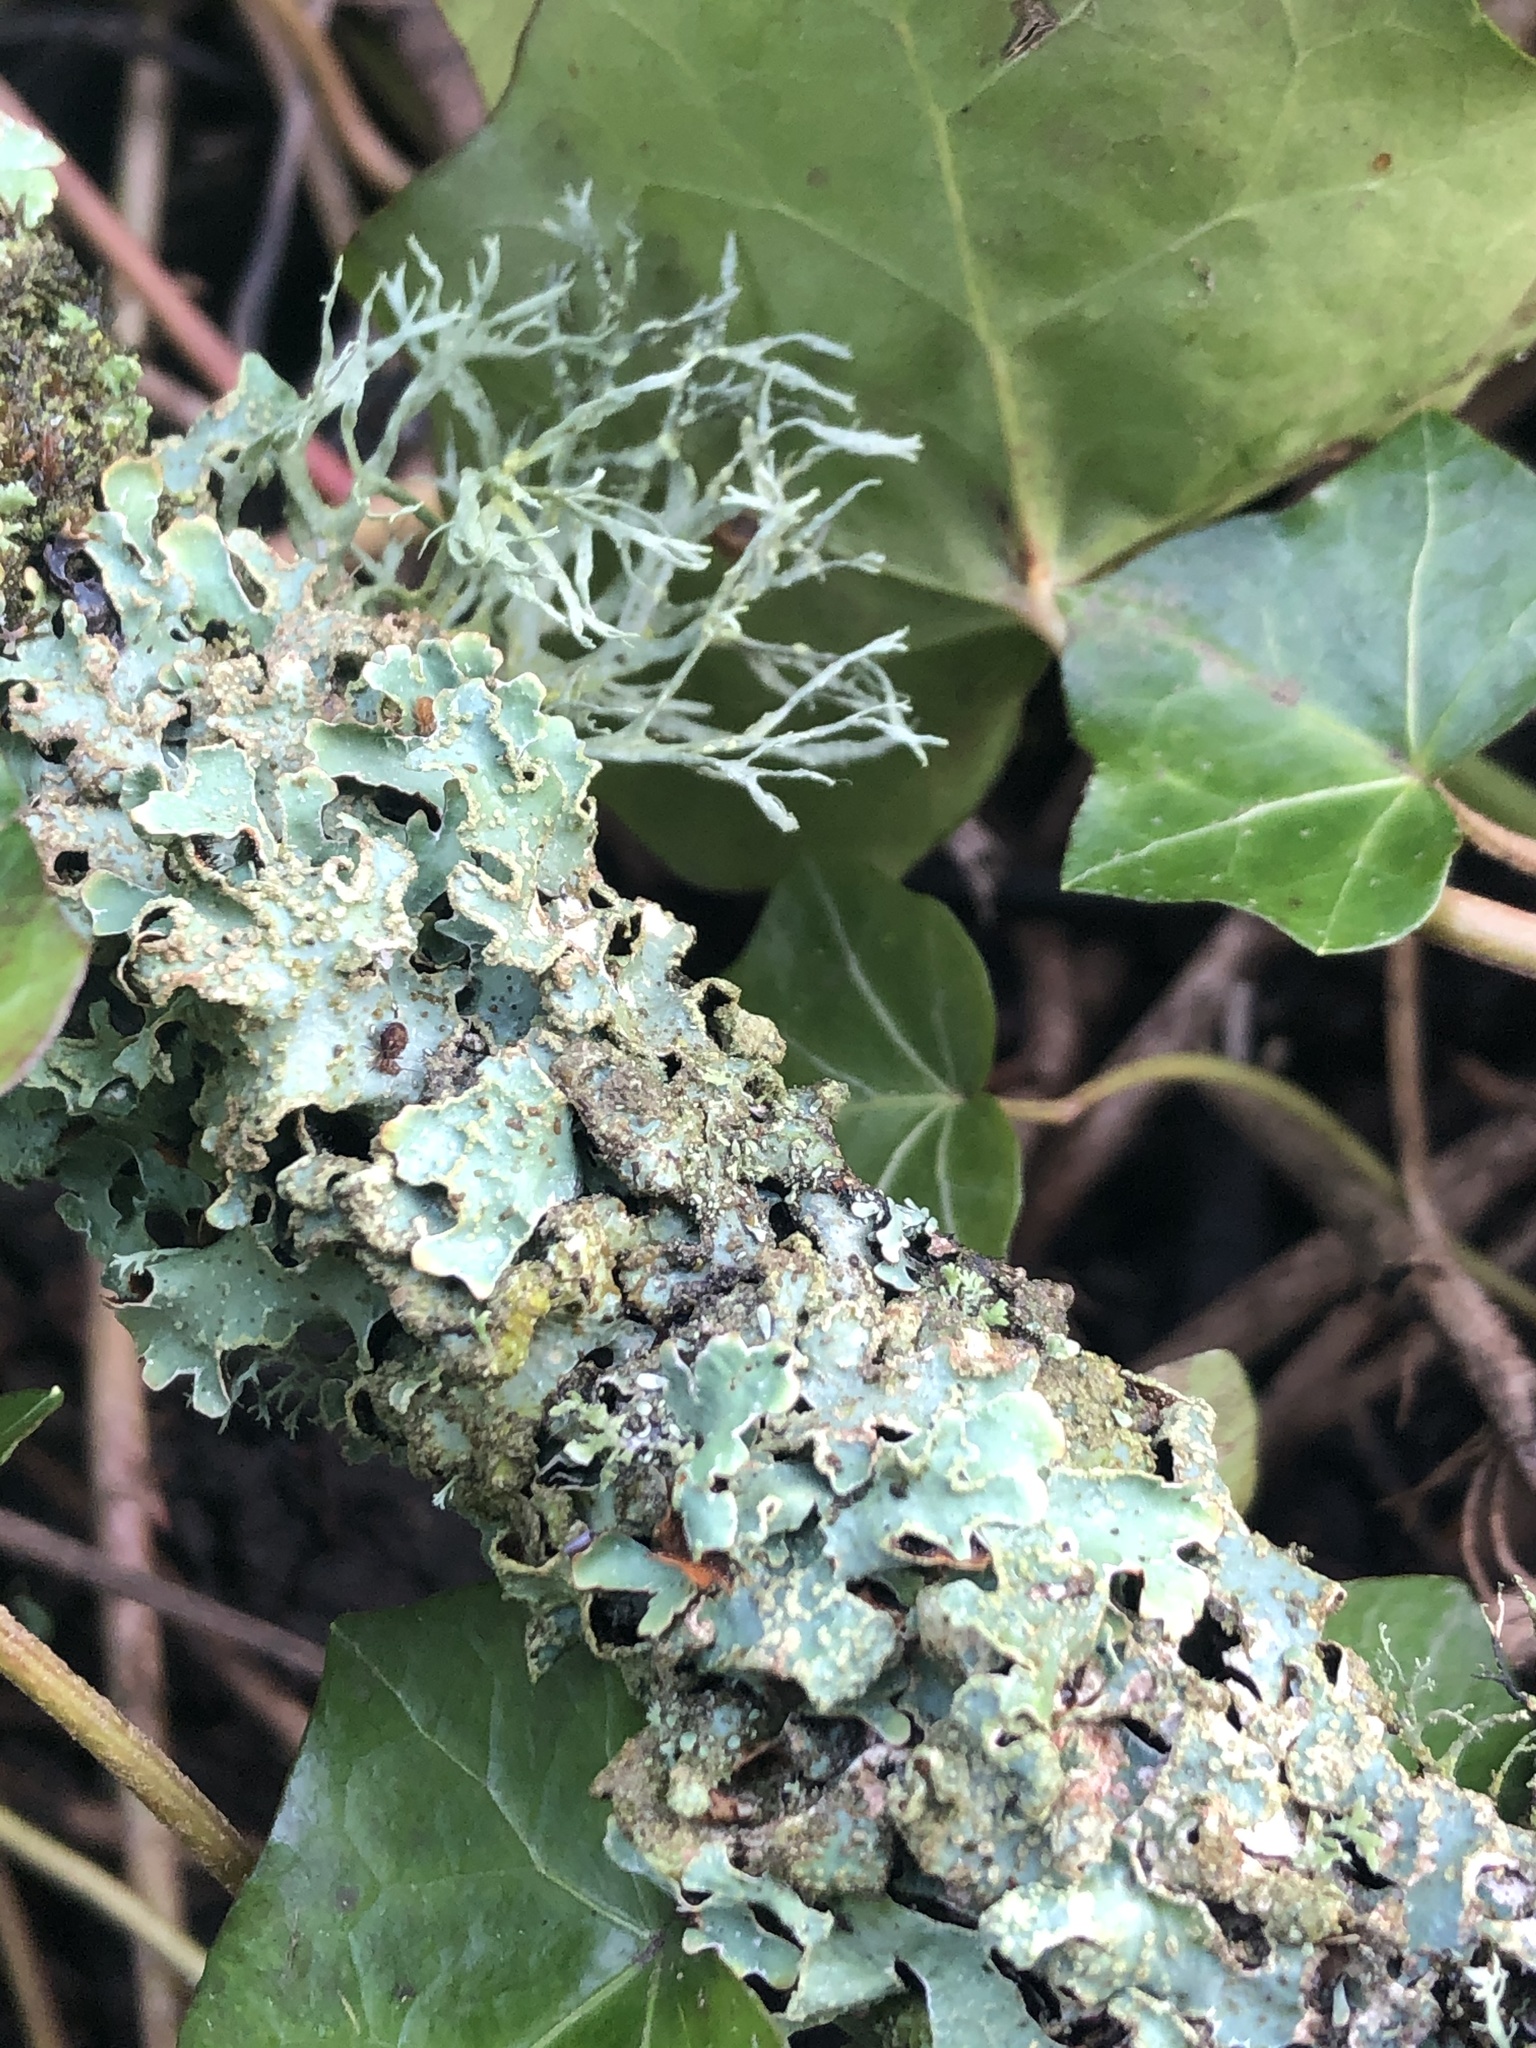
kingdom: Fungi
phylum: Ascomycota
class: Lecanoromycetes
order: Lecanorales
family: Parmeliaceae
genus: Parmelia
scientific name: Parmelia sulcata
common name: Netted shield lichen
